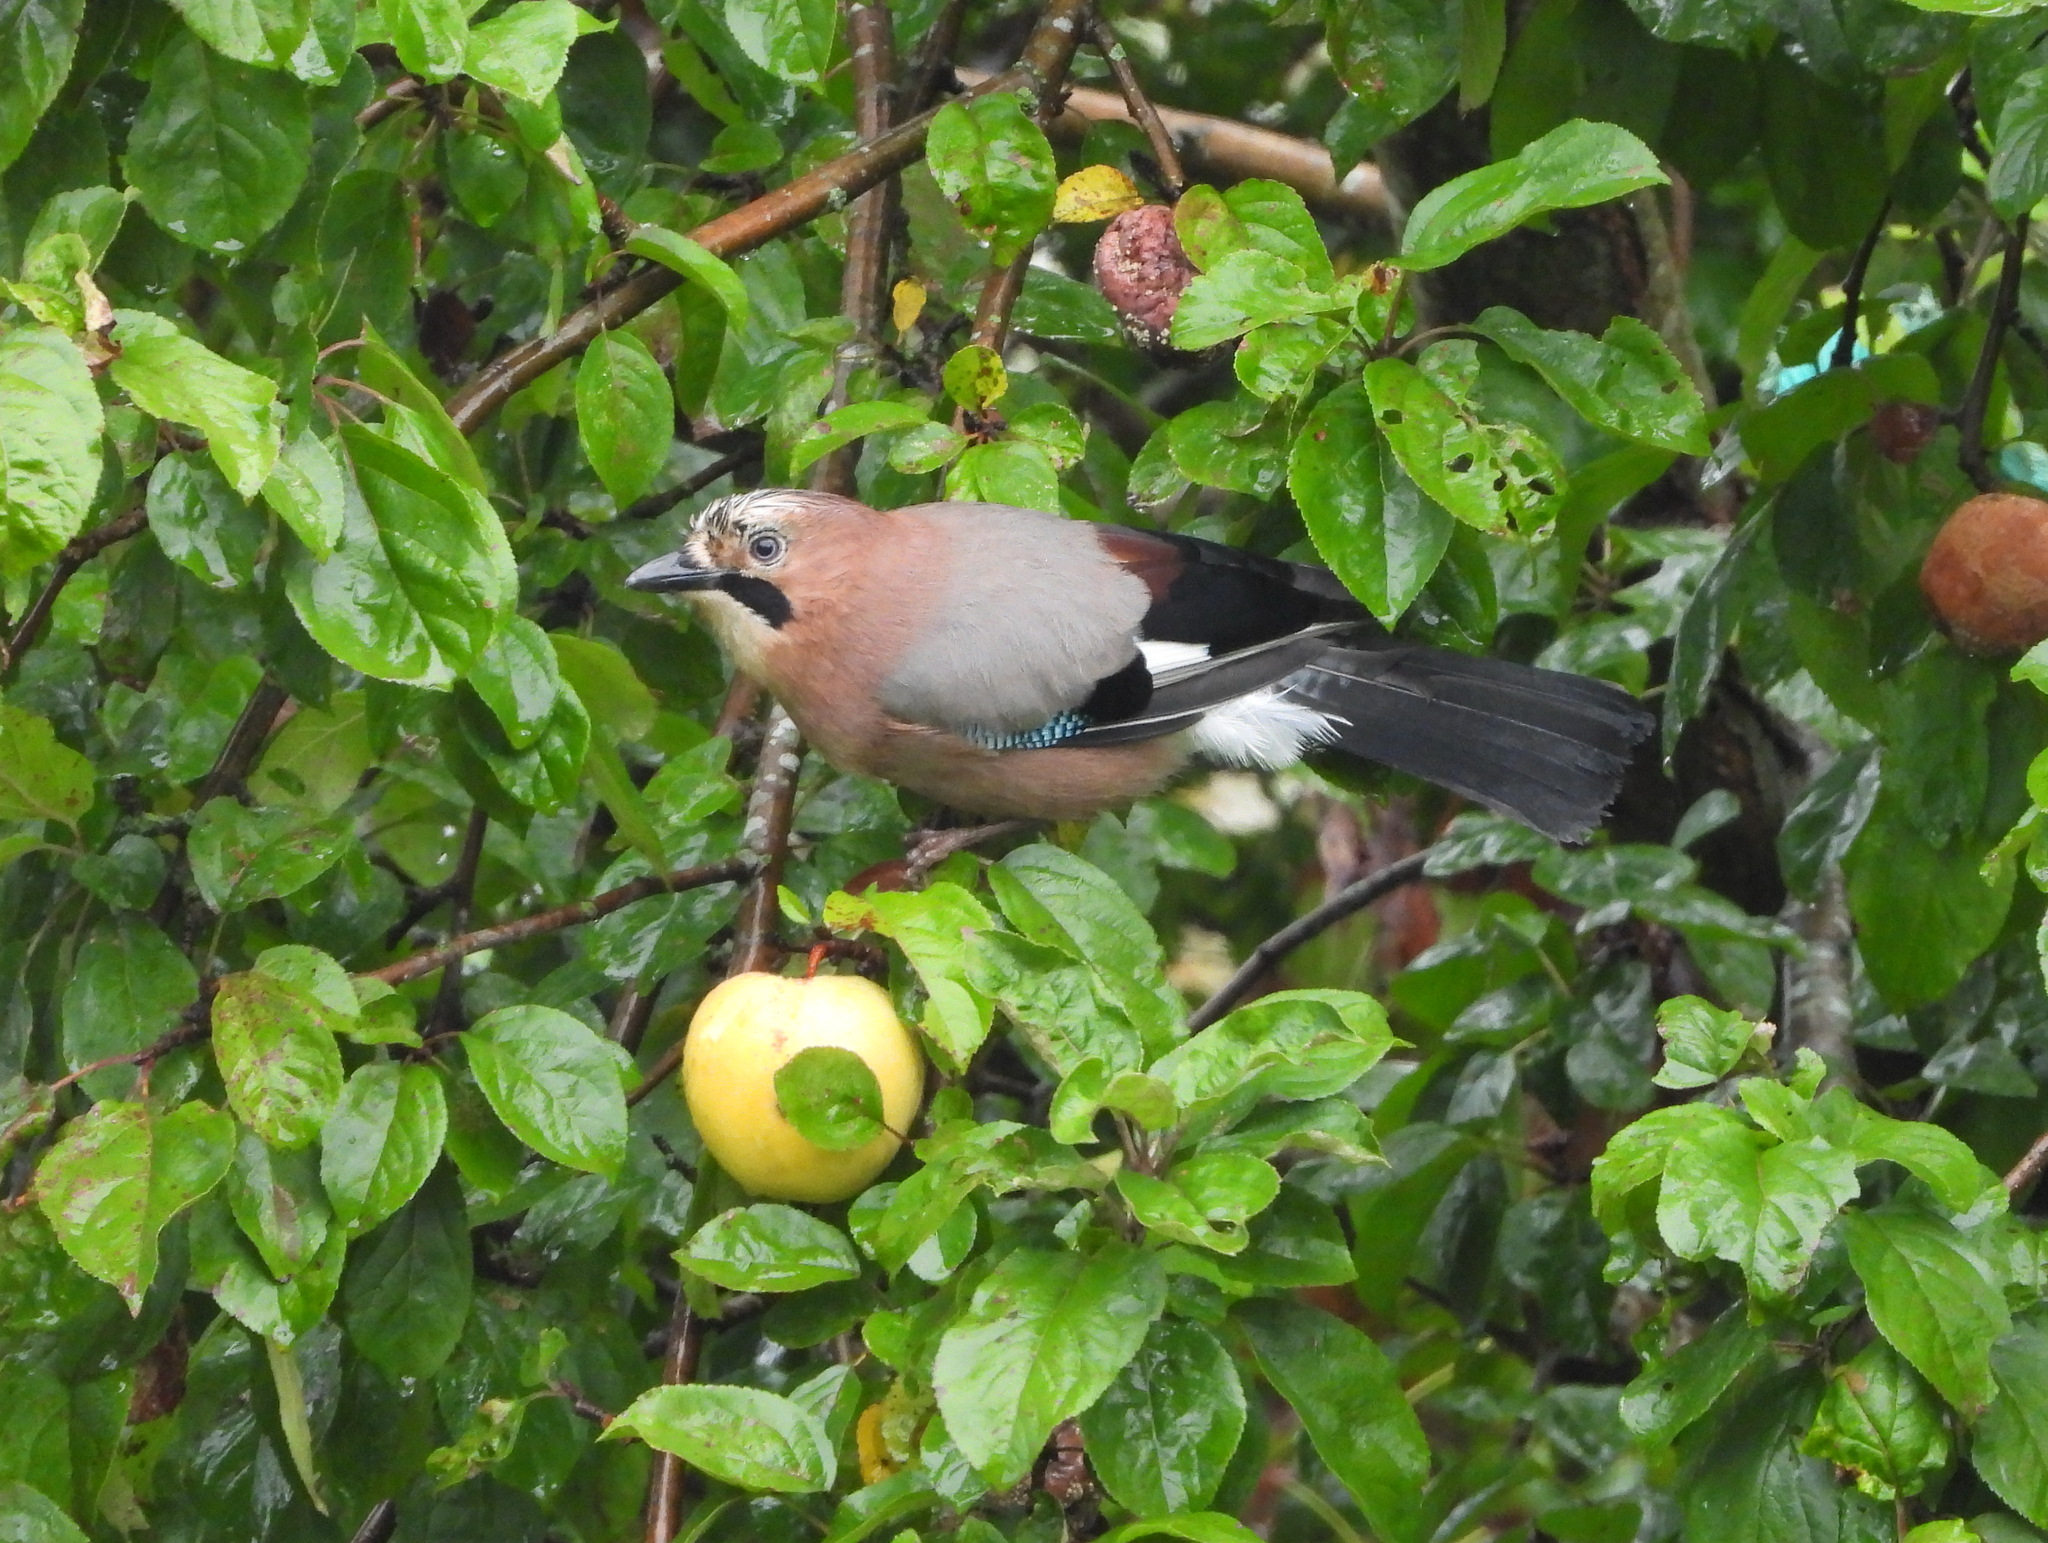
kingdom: Animalia
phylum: Chordata
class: Aves
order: Passeriformes
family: Corvidae
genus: Garrulus
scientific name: Garrulus glandarius
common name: Eurasian jay
